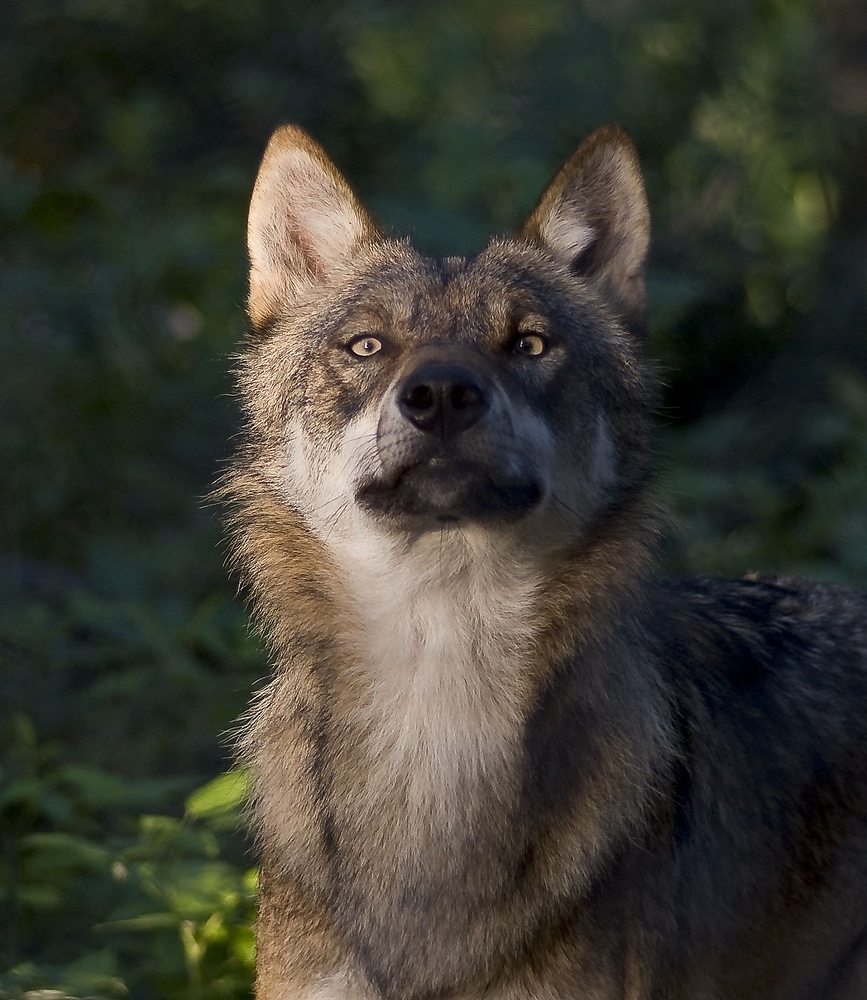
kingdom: Animalia
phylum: Chordata
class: Mammalia
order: Carnivora
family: Canidae
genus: Canis
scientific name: Canis lupus
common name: Gray wolf
